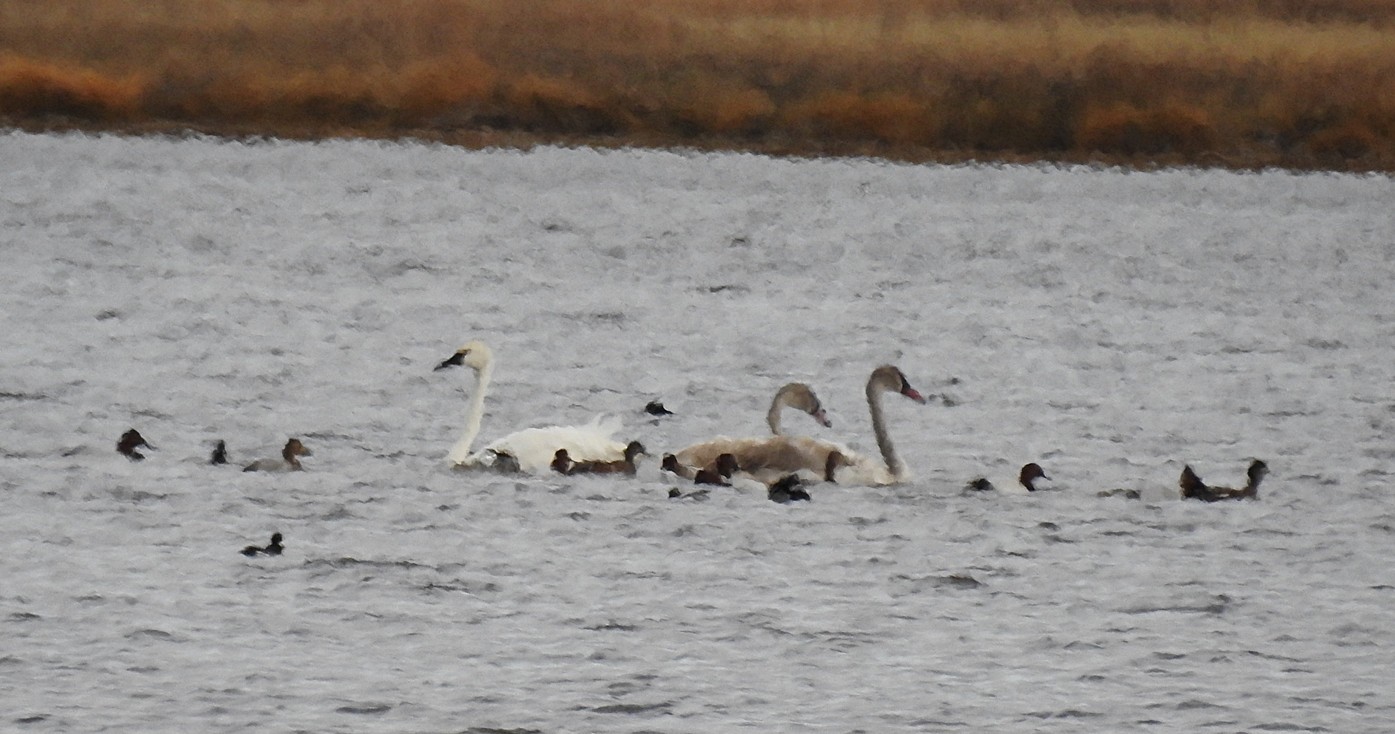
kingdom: Animalia
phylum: Chordata
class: Aves
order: Anseriformes
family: Anatidae
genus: Cygnus
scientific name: Cygnus buccinator
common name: Trumpeter swan
